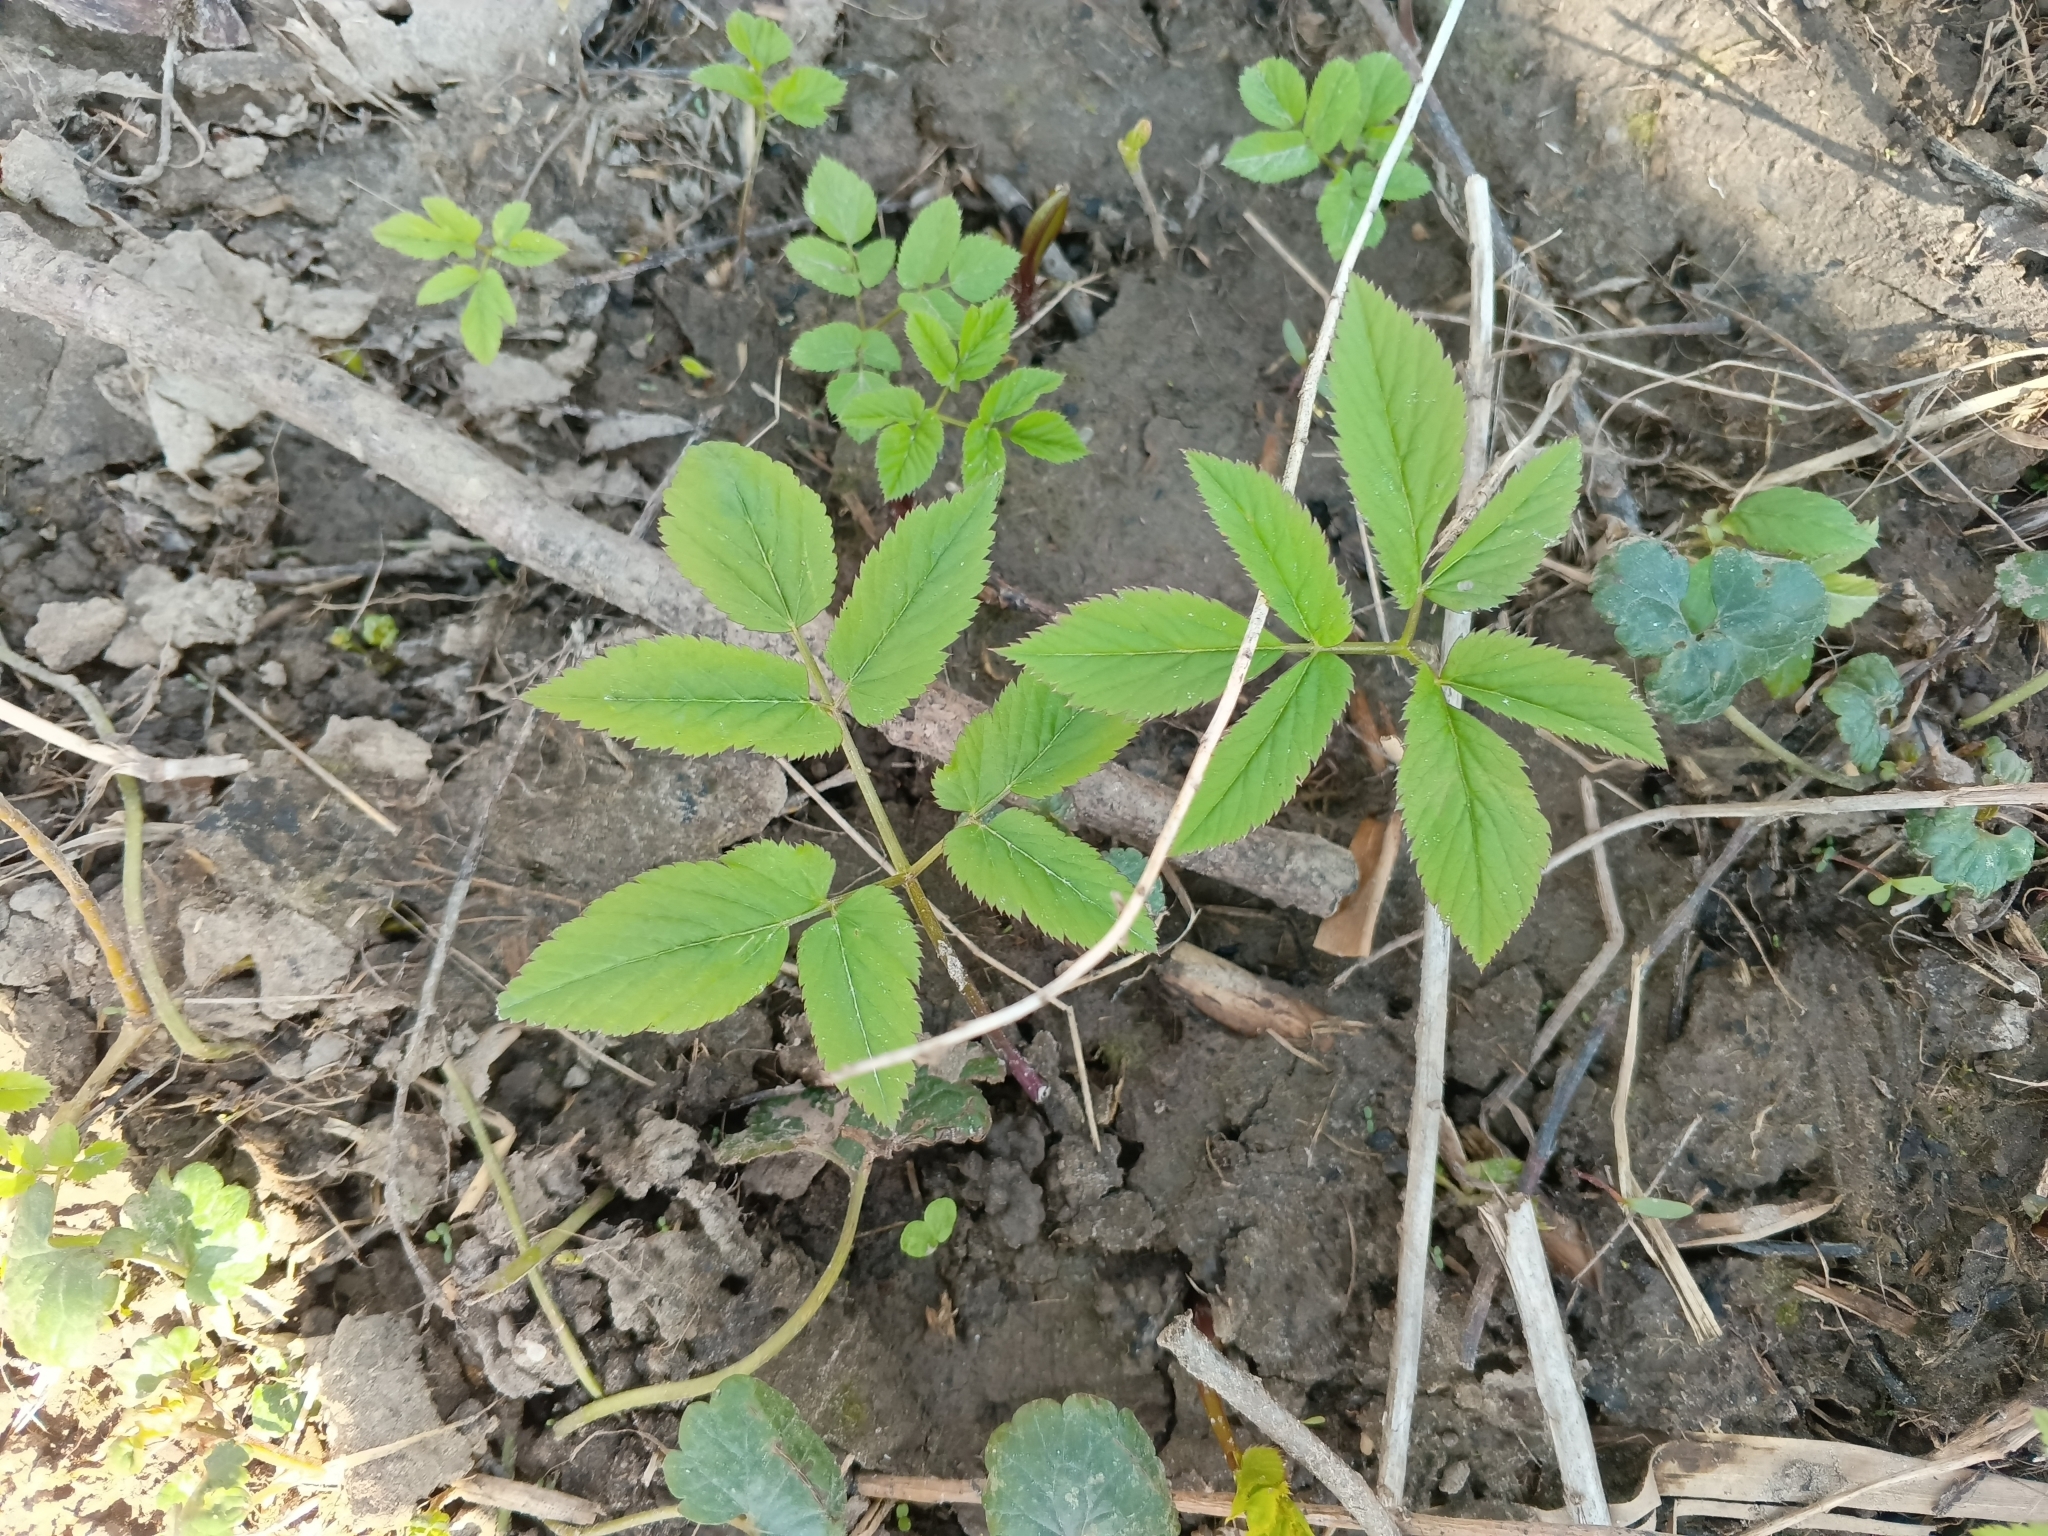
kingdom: Plantae
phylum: Tracheophyta
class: Magnoliopsida
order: Apiales
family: Apiaceae
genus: Aegopodium
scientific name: Aegopodium podagraria
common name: Ground-elder
